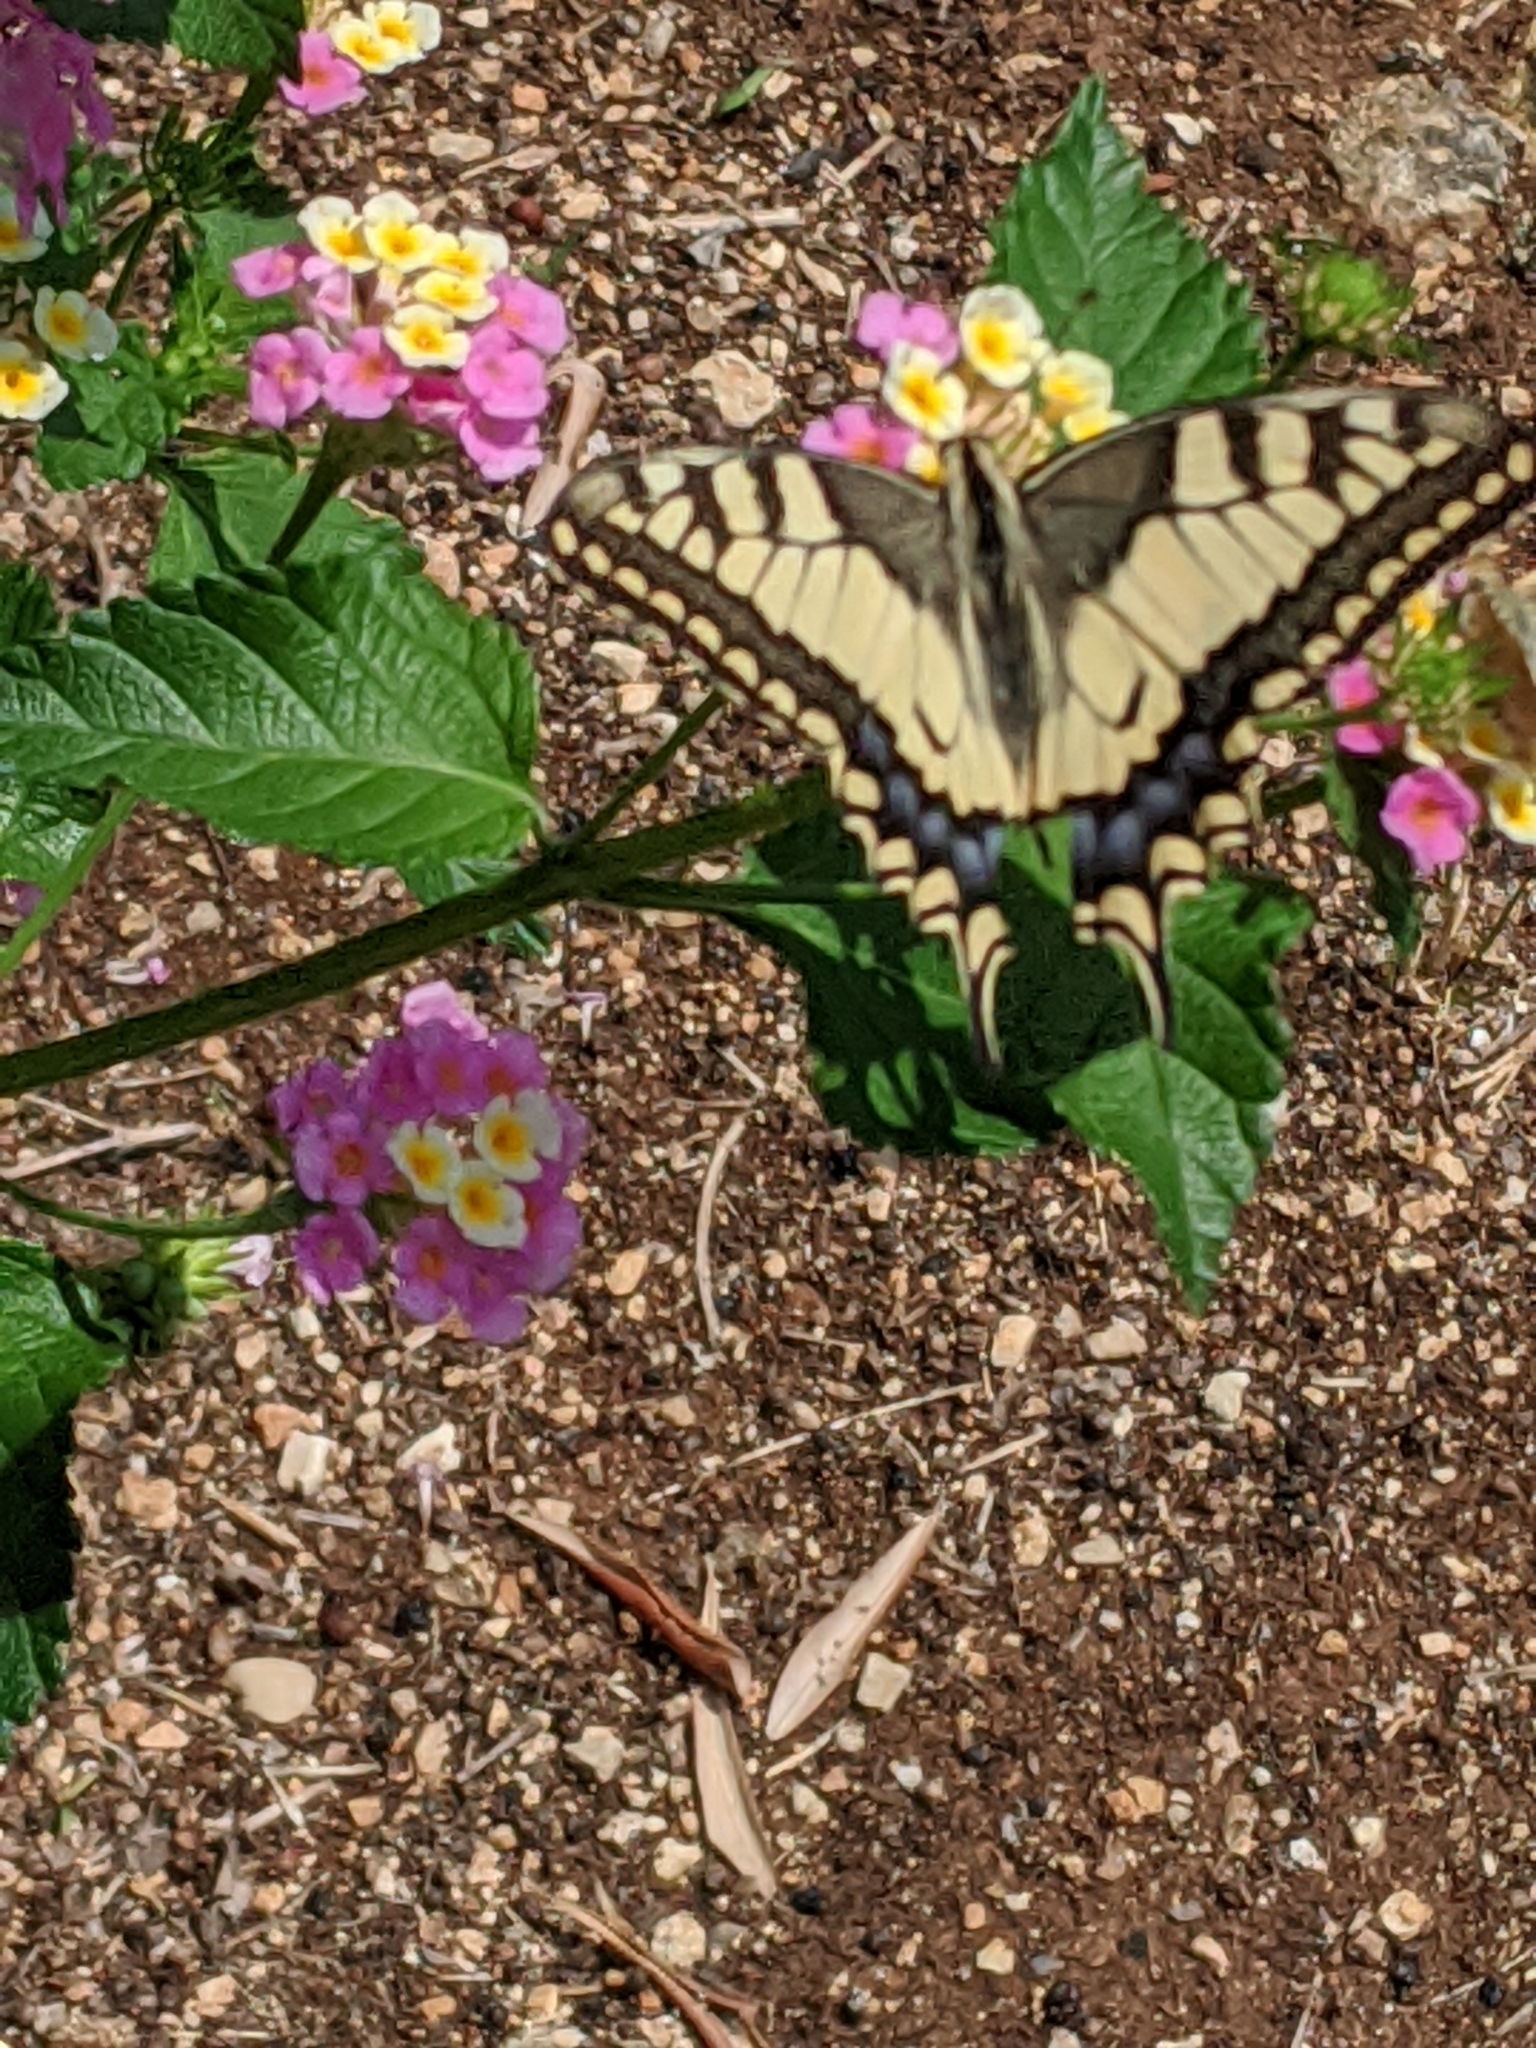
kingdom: Animalia
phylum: Arthropoda
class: Insecta
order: Lepidoptera
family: Papilionidae
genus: Papilio
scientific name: Papilio machaon
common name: Swallowtail
